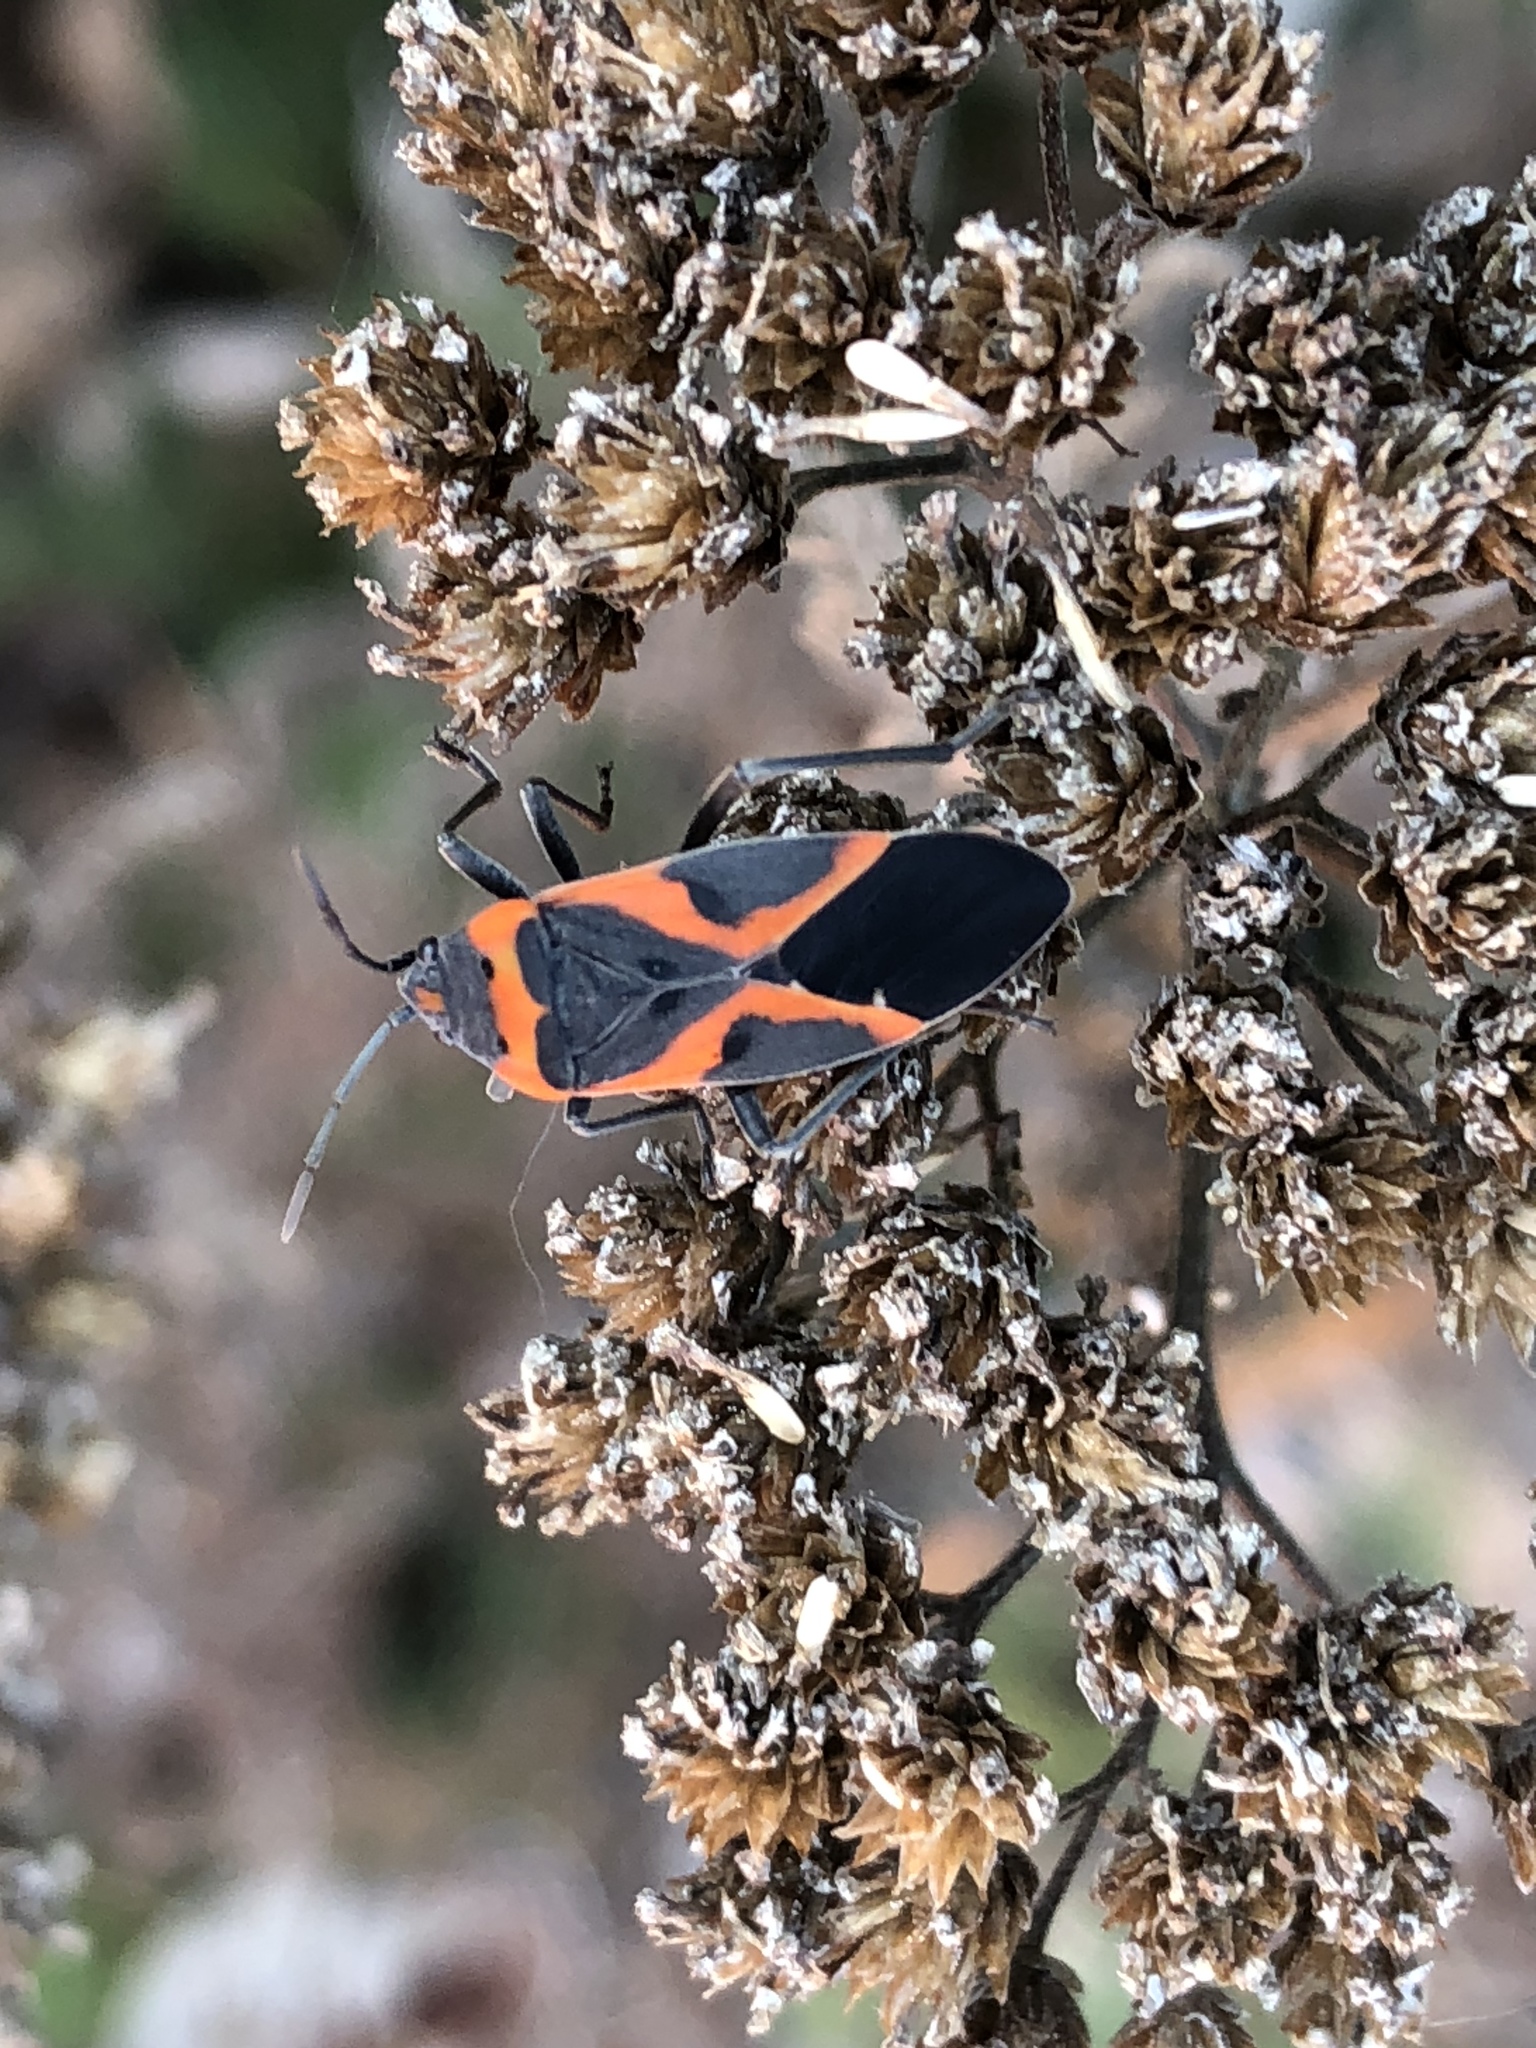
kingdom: Animalia
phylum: Arthropoda
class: Insecta
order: Hemiptera
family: Lygaeidae
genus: Lygaeus
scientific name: Lygaeus kalmii
